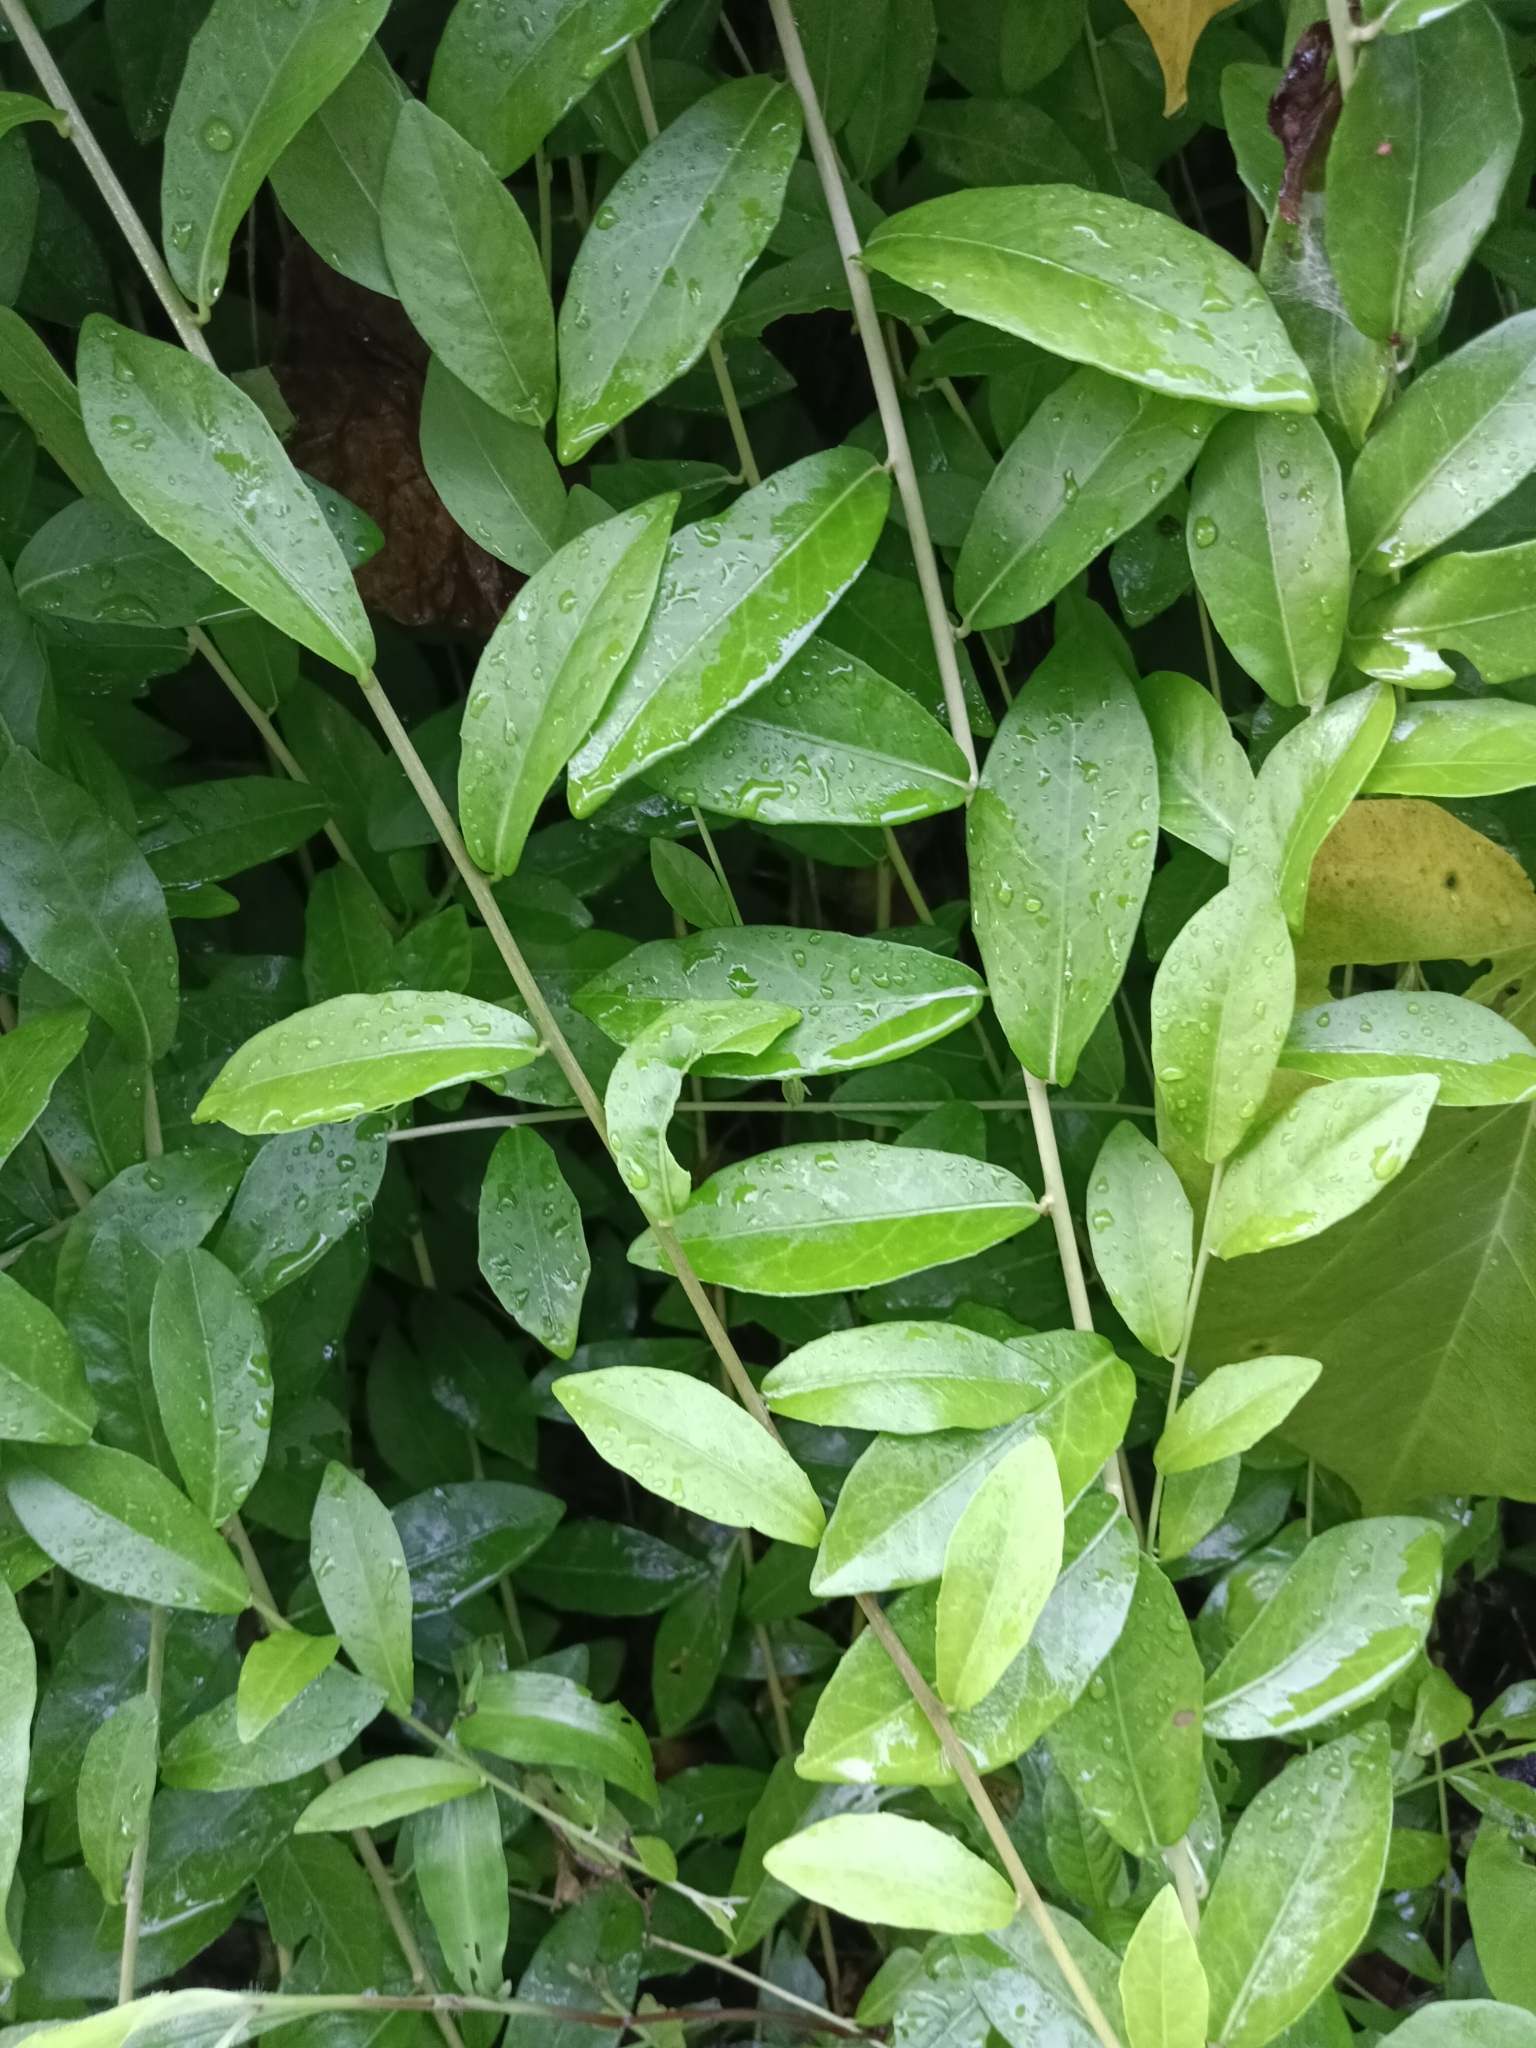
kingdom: Plantae
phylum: Tracheophyta
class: Magnoliopsida
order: Asterales
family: Asteraceae
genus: Tarlmounia
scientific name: Tarlmounia elliptica
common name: Kheua sa lot
